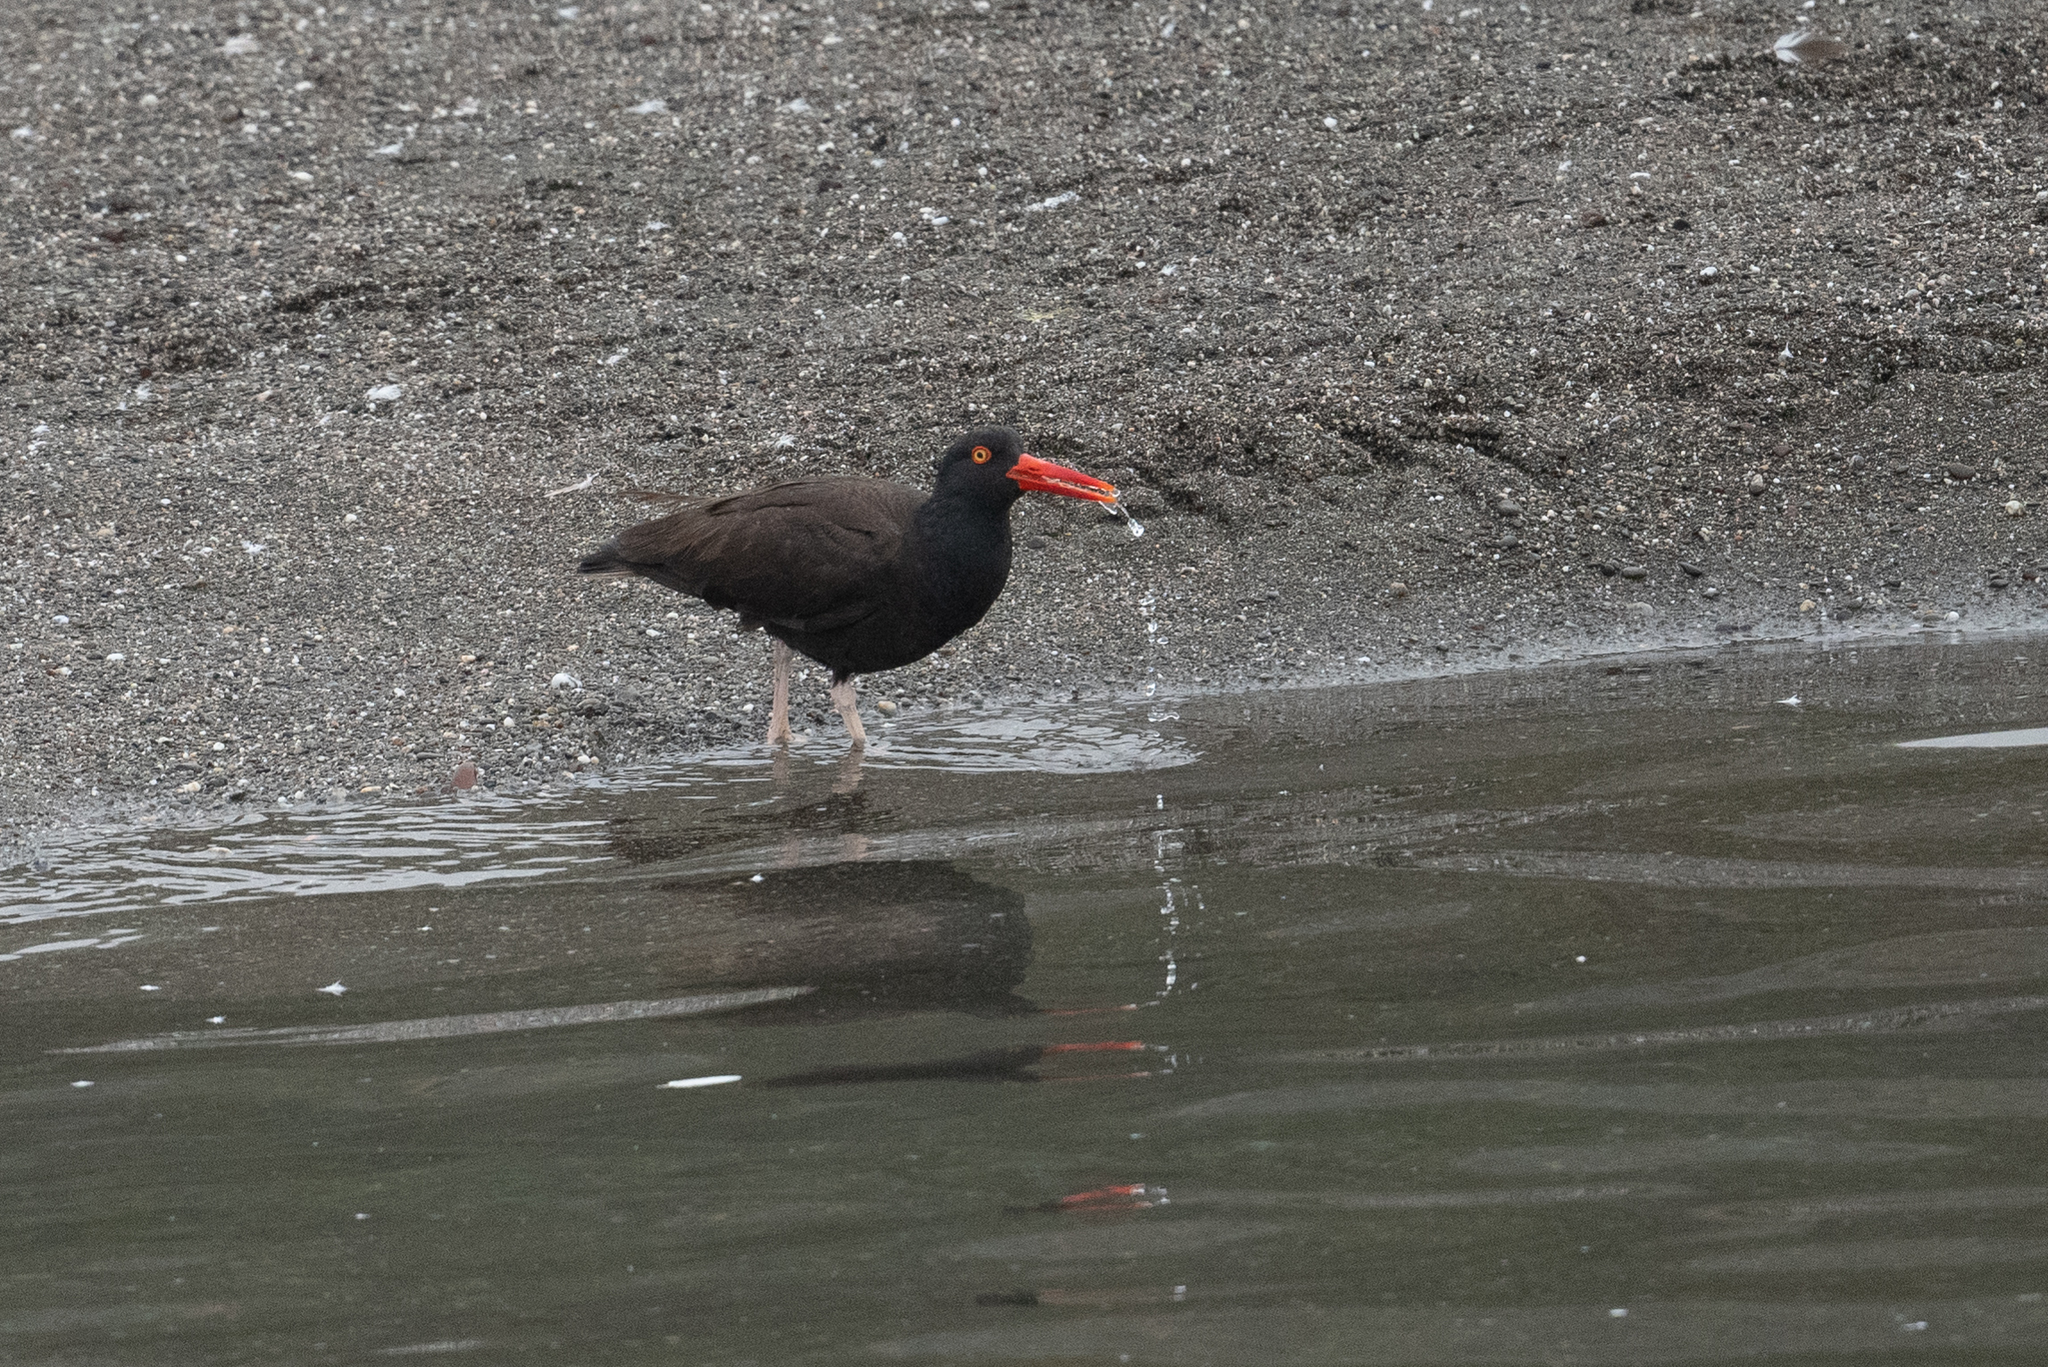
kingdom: Animalia
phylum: Chordata
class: Aves
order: Charadriiformes
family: Haematopodidae
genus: Haematopus
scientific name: Haematopus bachmani
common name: Black oystercatcher
